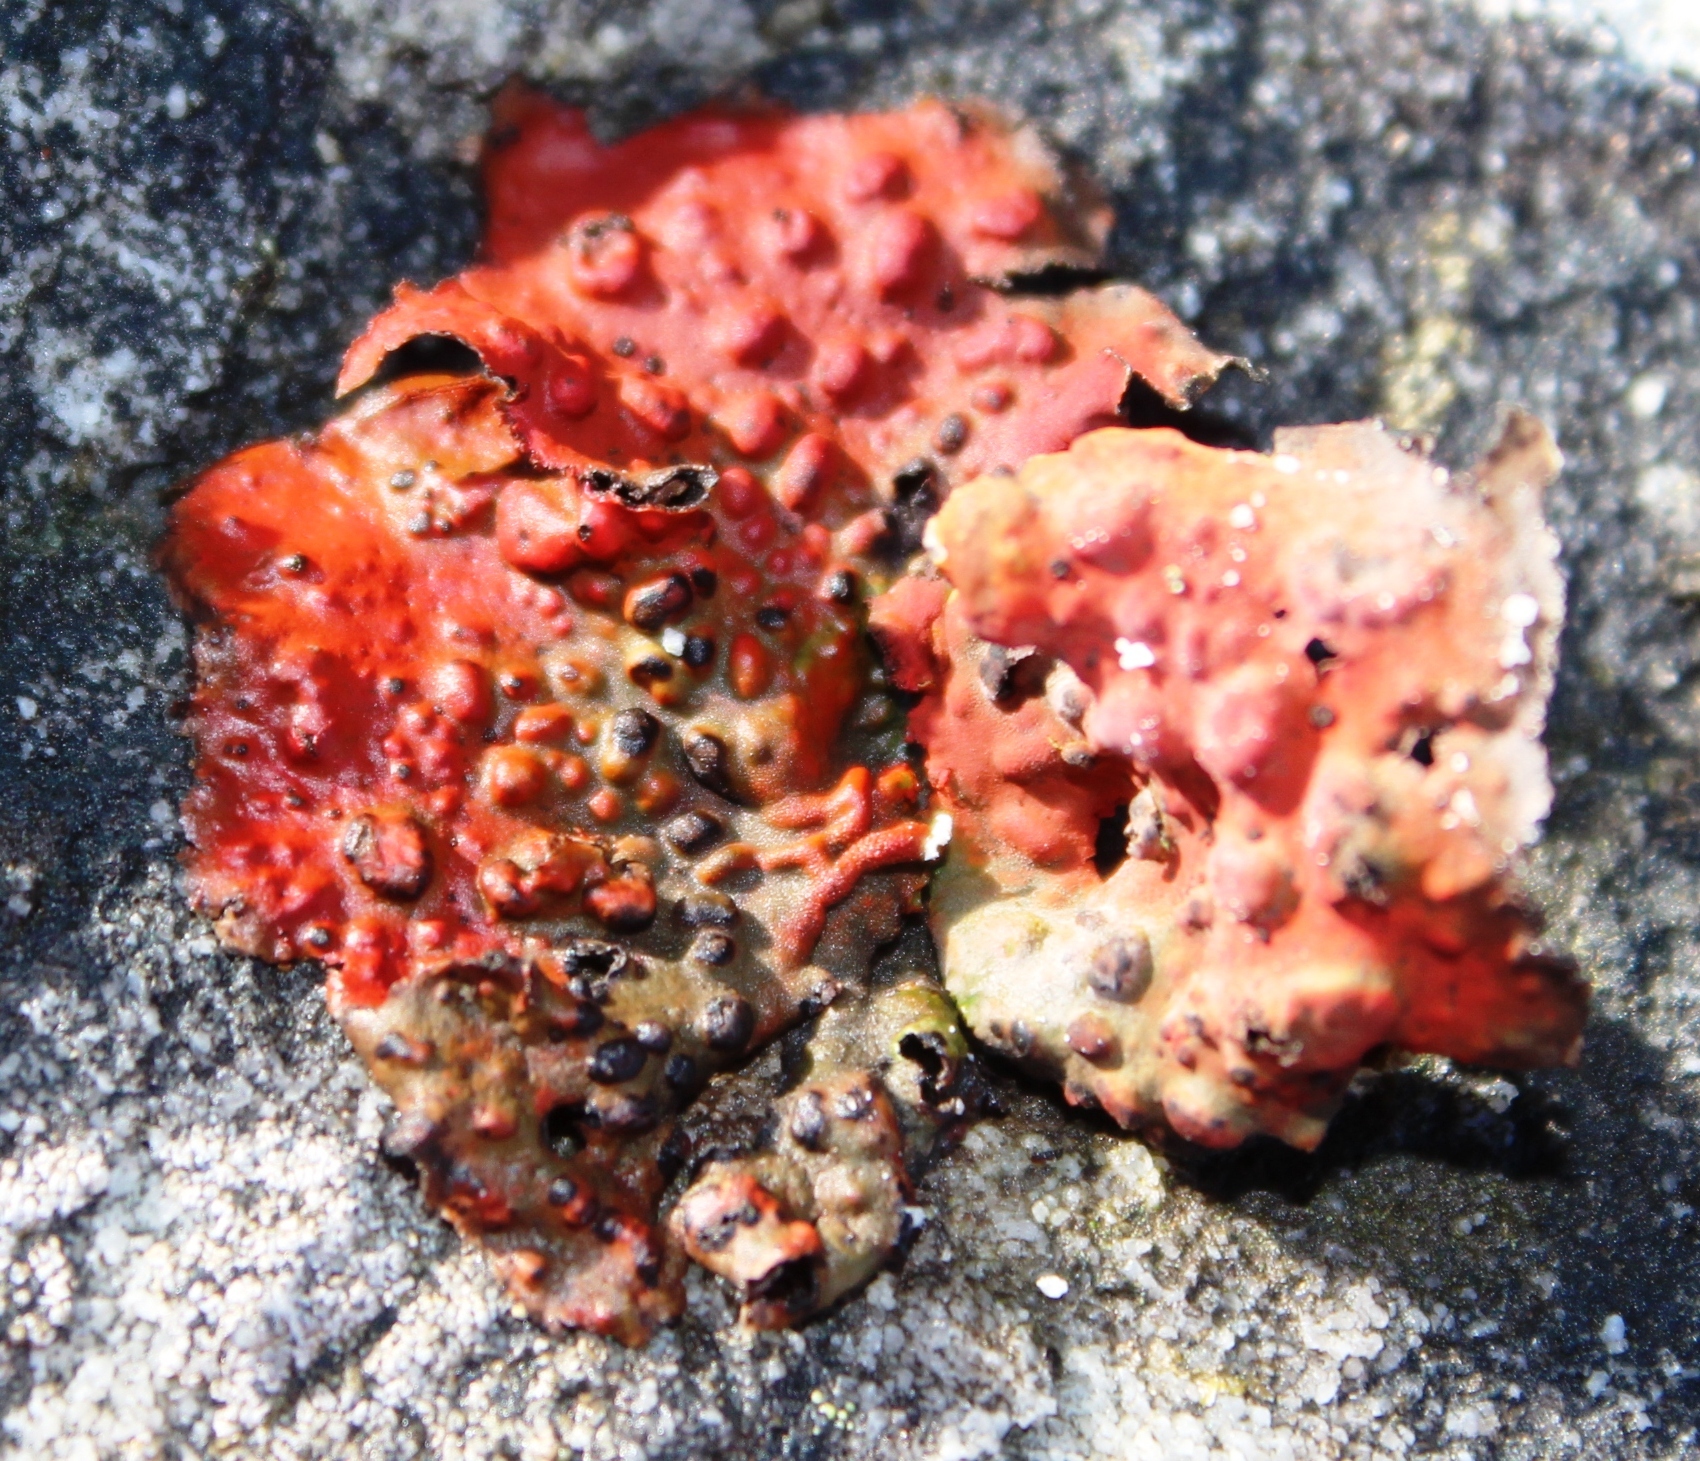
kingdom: Fungi
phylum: Ascomycota
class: Lecanoromycetes
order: Umbilicariales
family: Umbilicariaceae
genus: Lasallia
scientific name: Lasallia rubiginosa
